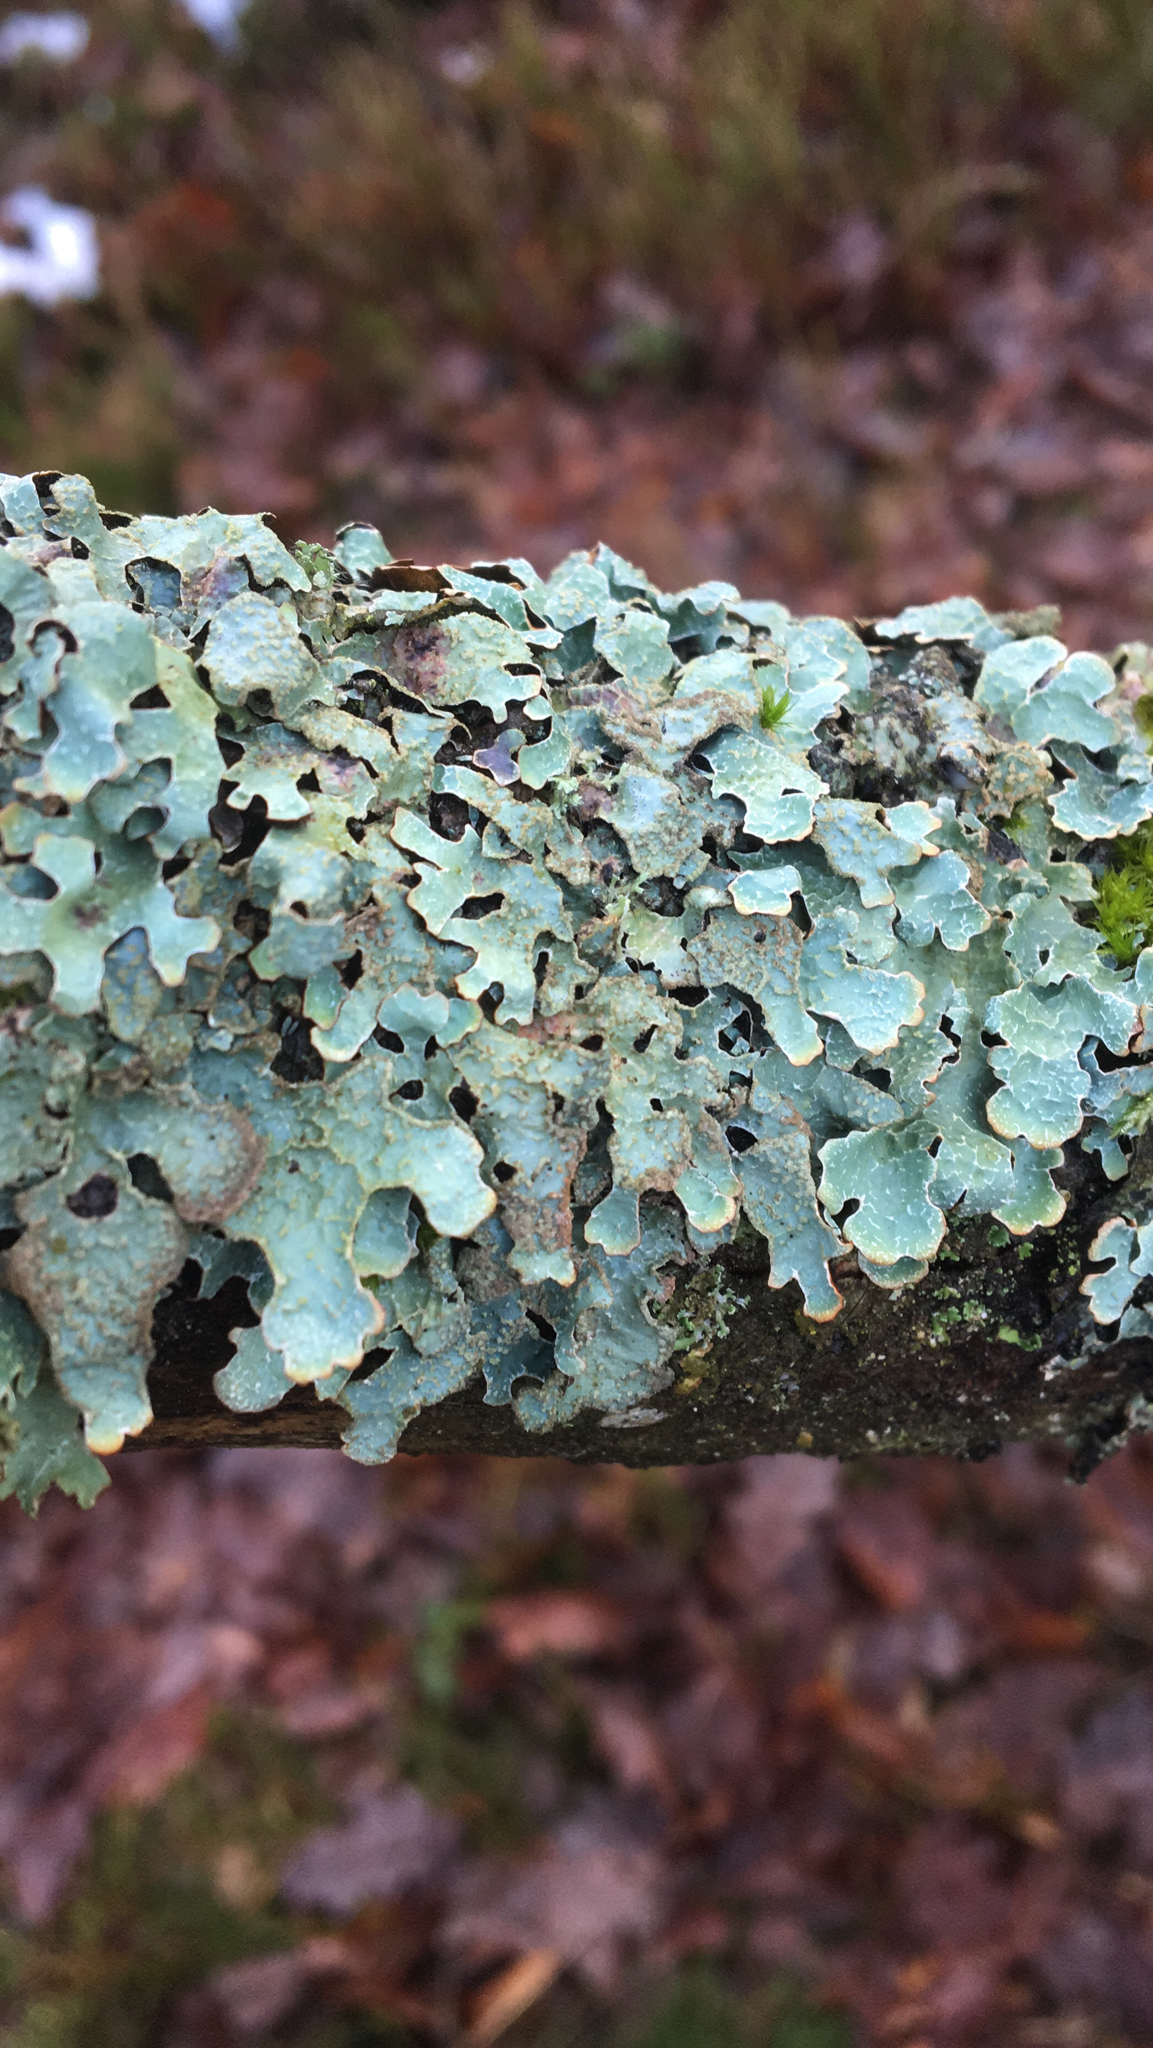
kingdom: Fungi
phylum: Ascomycota
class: Lecanoromycetes
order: Lecanorales
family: Parmeliaceae
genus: Parmelia
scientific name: Parmelia sulcata
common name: Netted shield lichen
